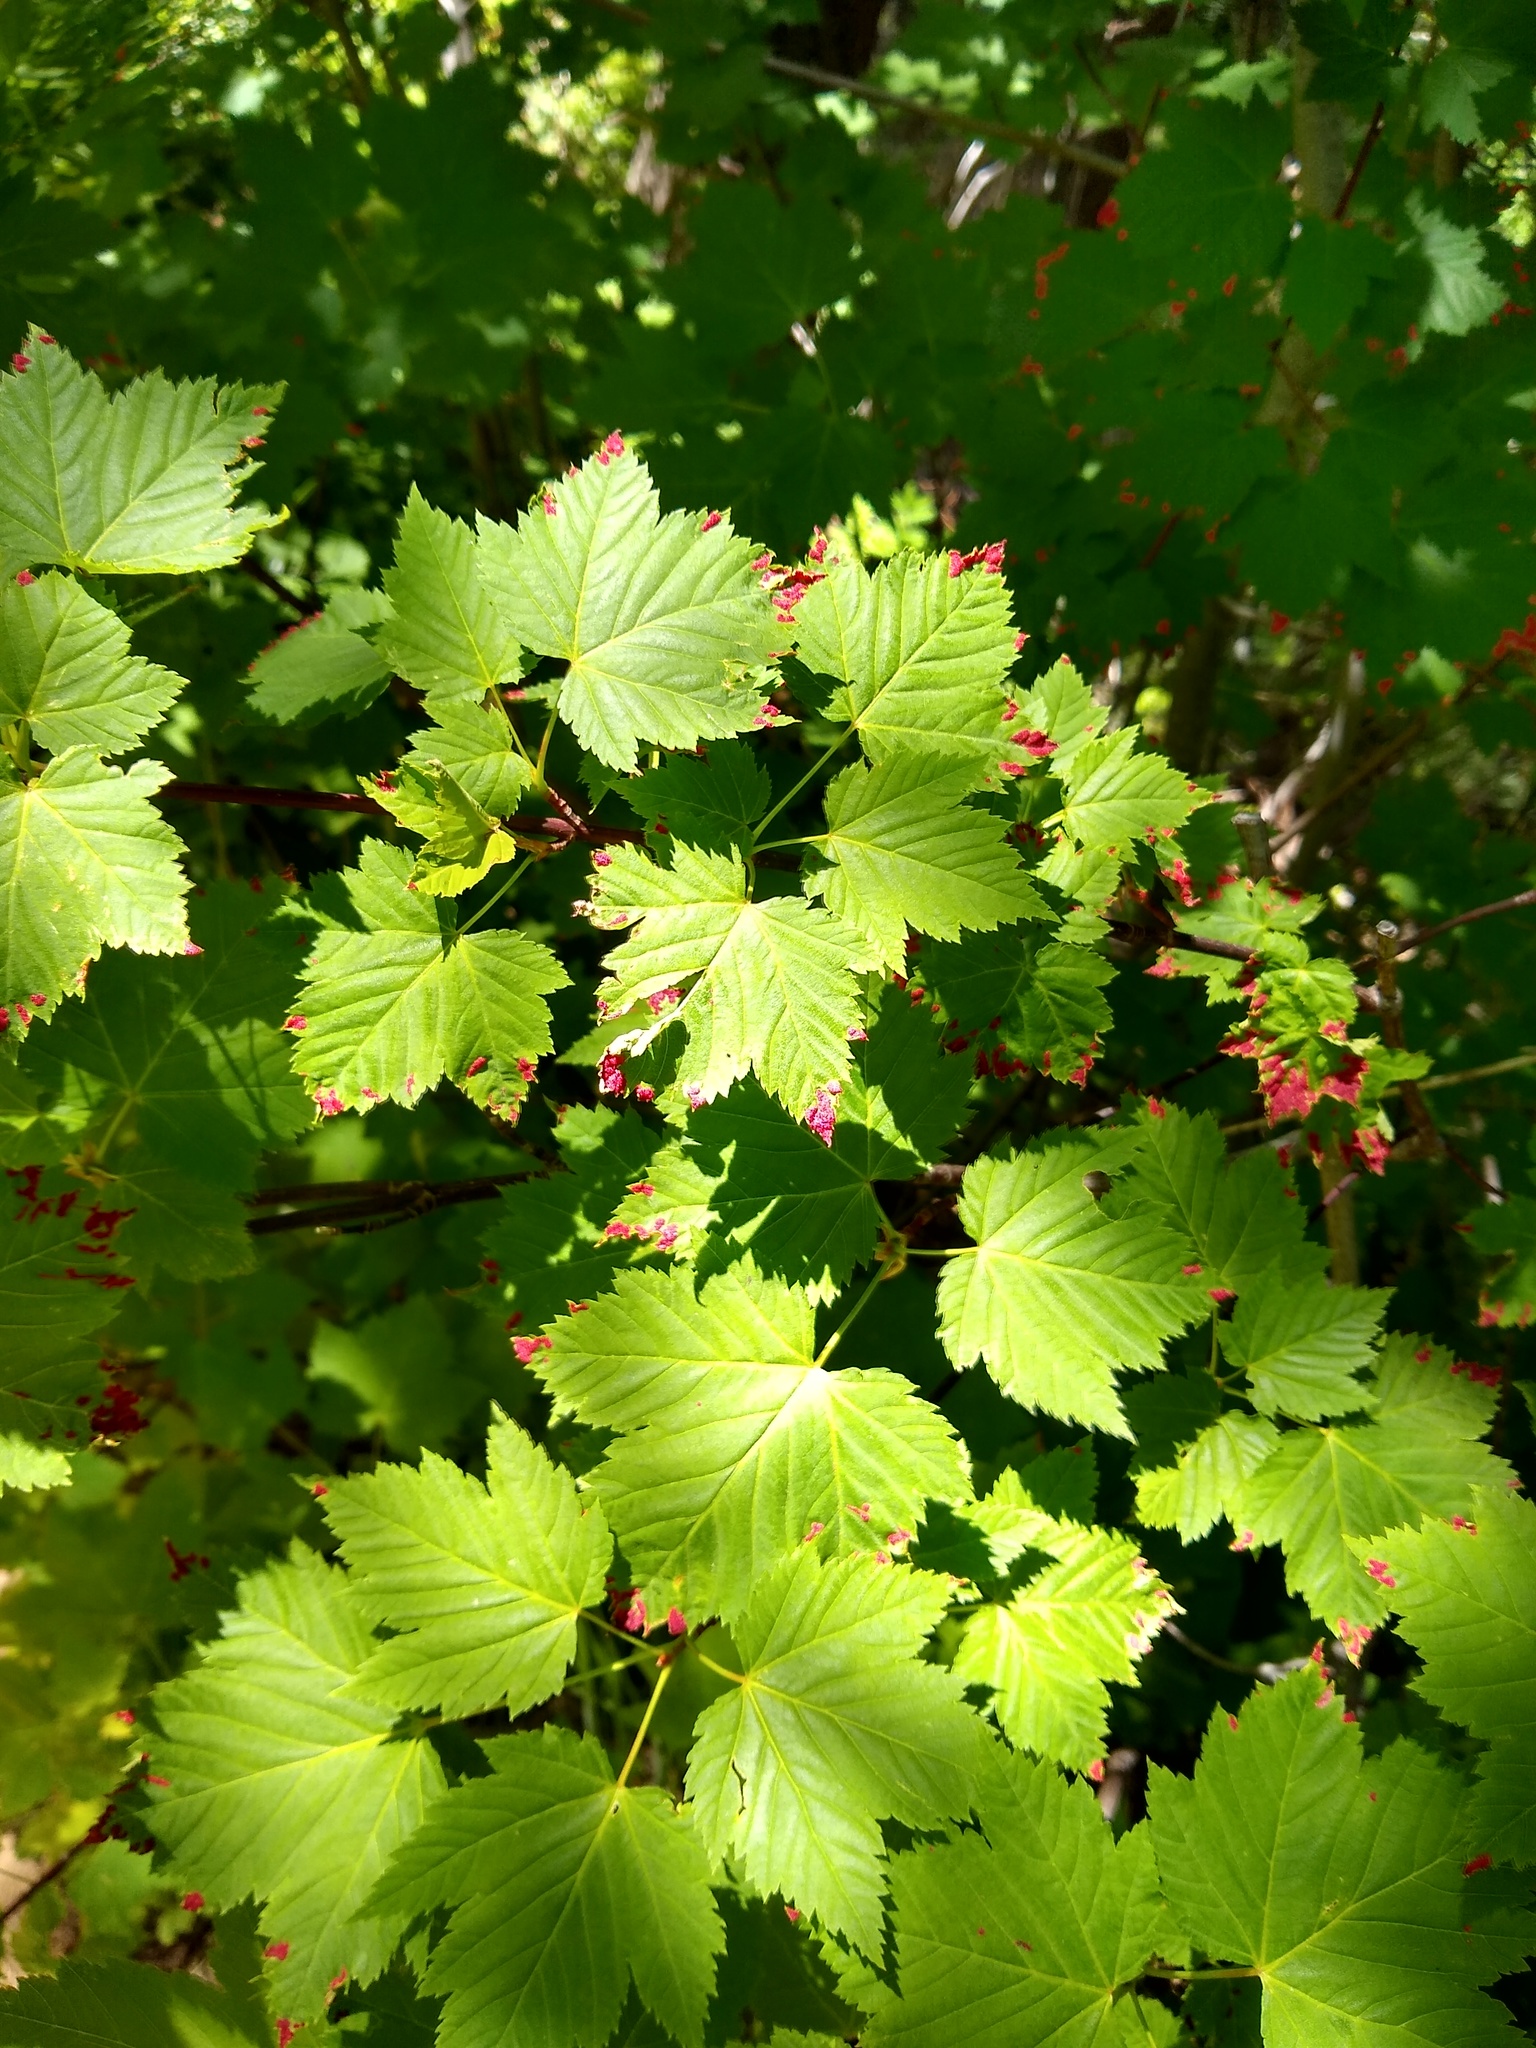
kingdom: Animalia
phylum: Arthropoda
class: Arachnida
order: Trombidiformes
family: Eriophyidae
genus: Aceria
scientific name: Aceria
